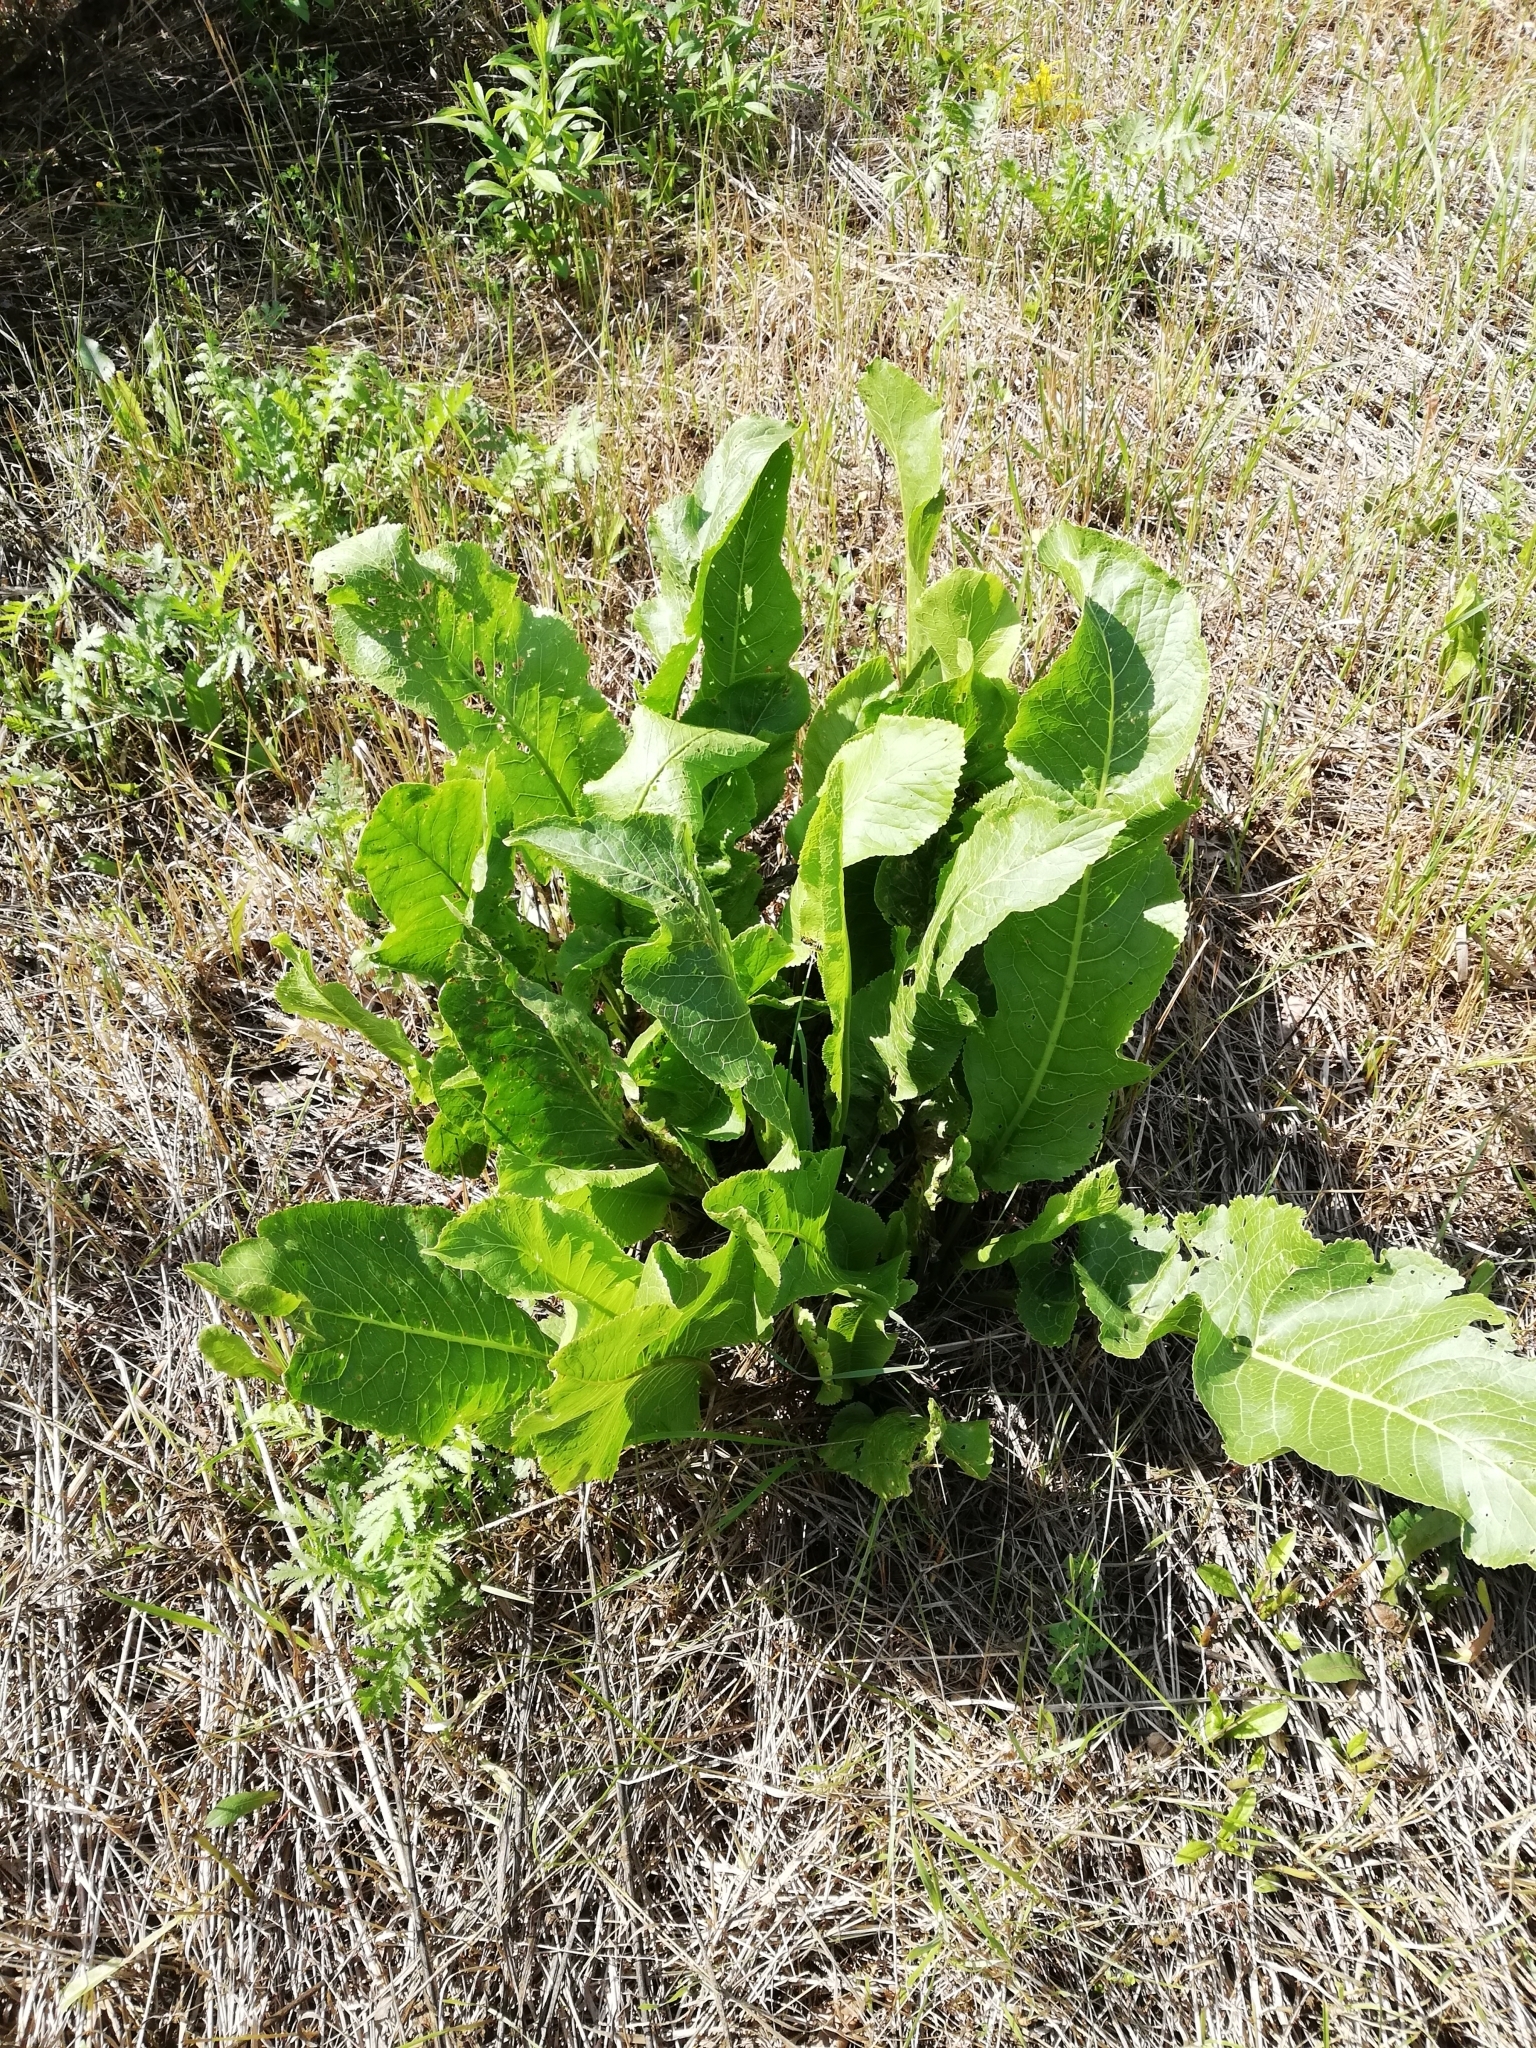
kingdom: Plantae
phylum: Tracheophyta
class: Magnoliopsida
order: Brassicales
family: Brassicaceae
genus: Armoracia
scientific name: Armoracia rusticana
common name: Horseradish
